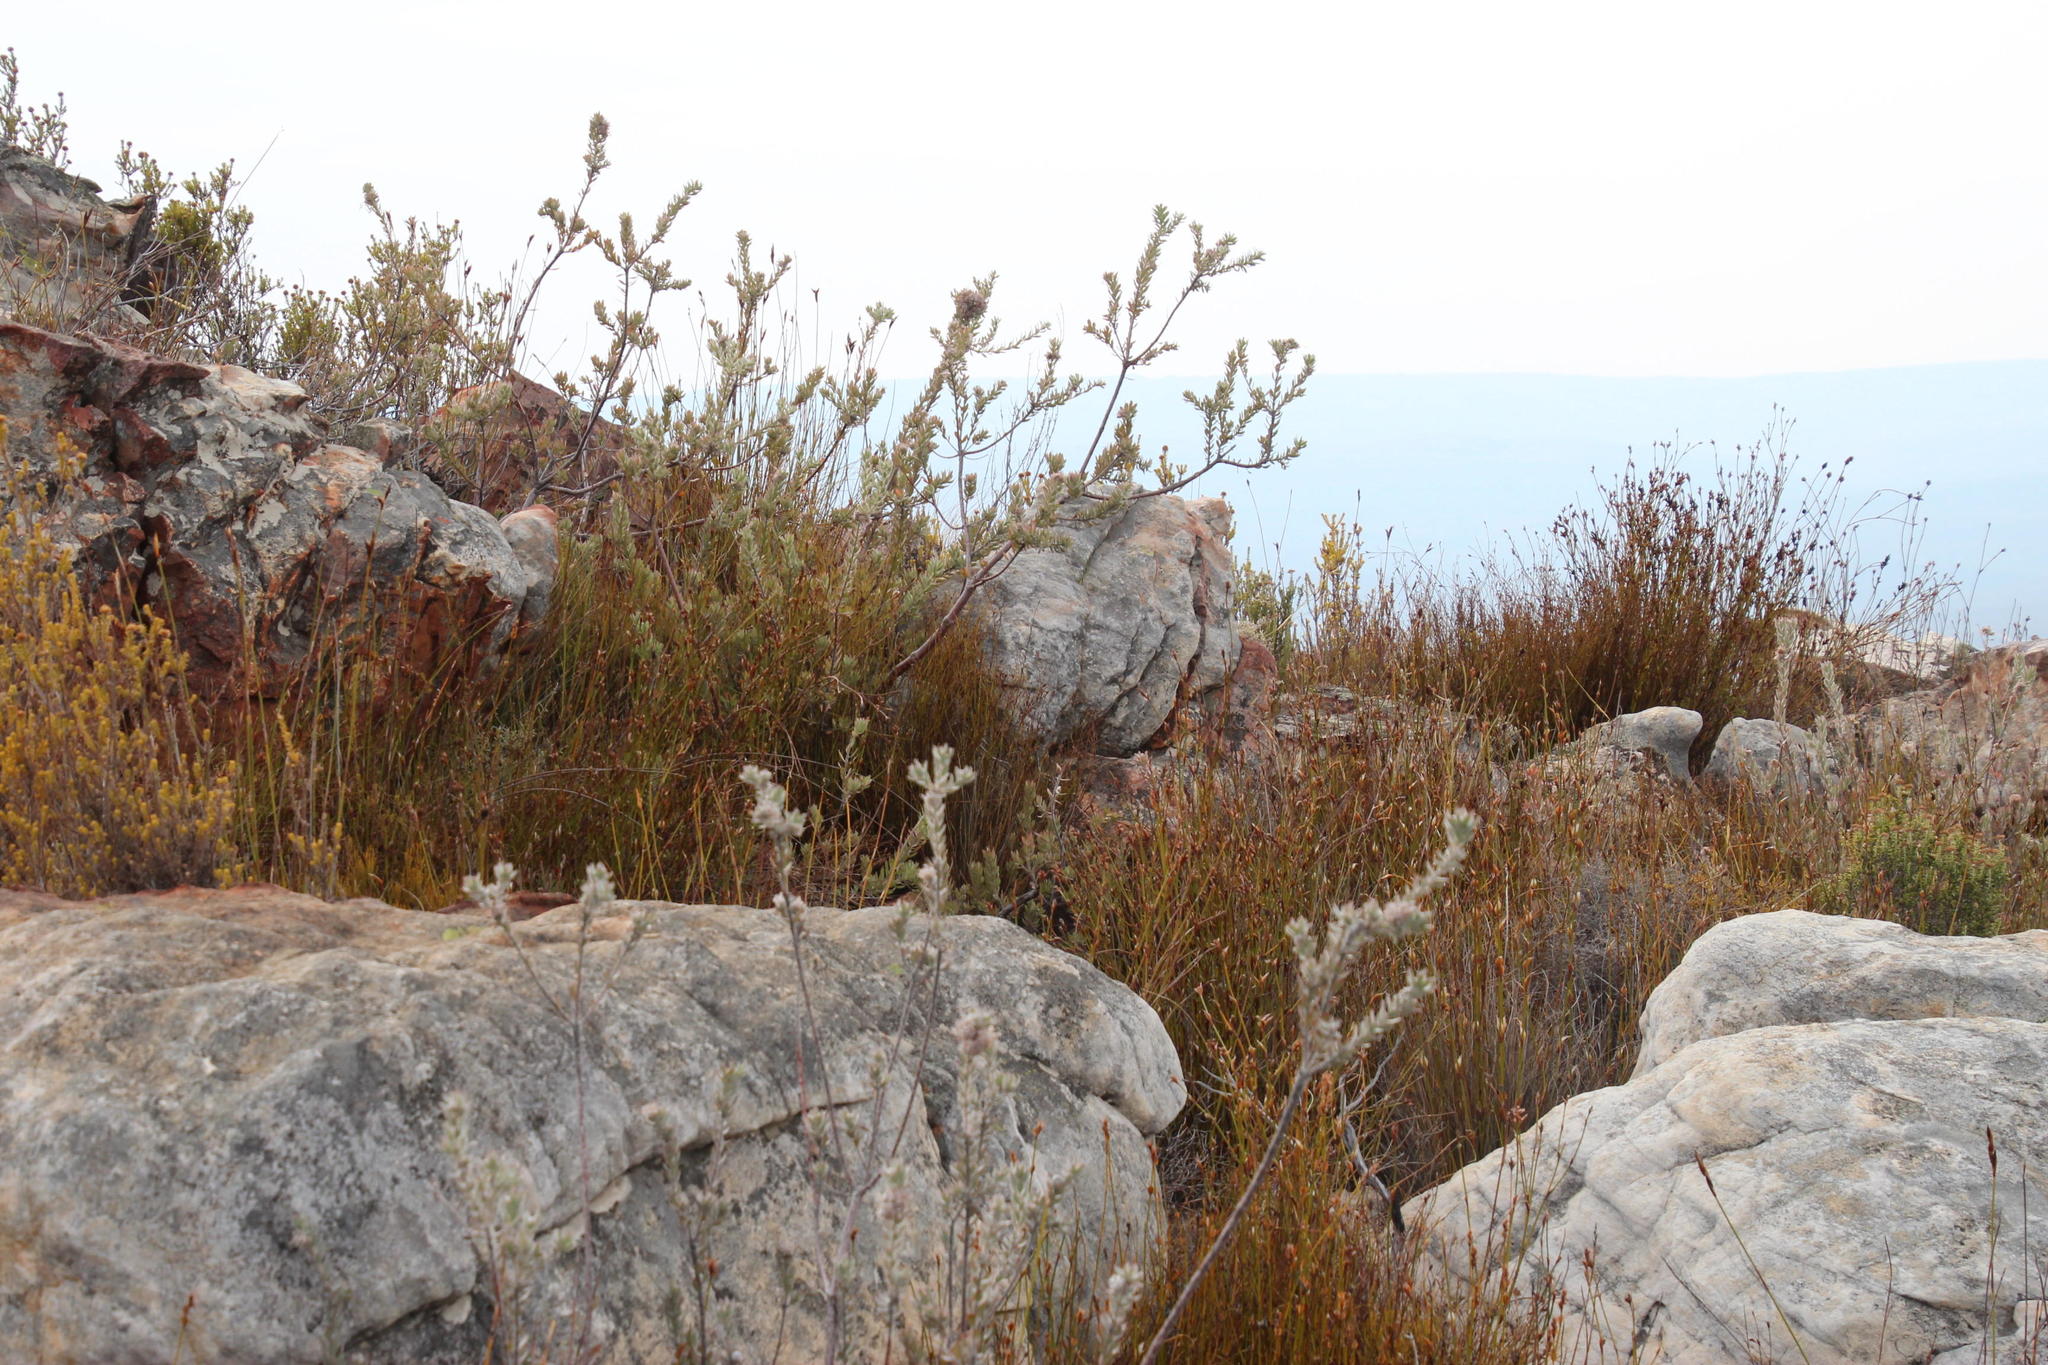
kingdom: Plantae
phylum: Tracheophyta
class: Magnoliopsida
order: Proteales
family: Proteaceae
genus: Leucospermum
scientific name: Leucospermum calligerum
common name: Arid pincushion
